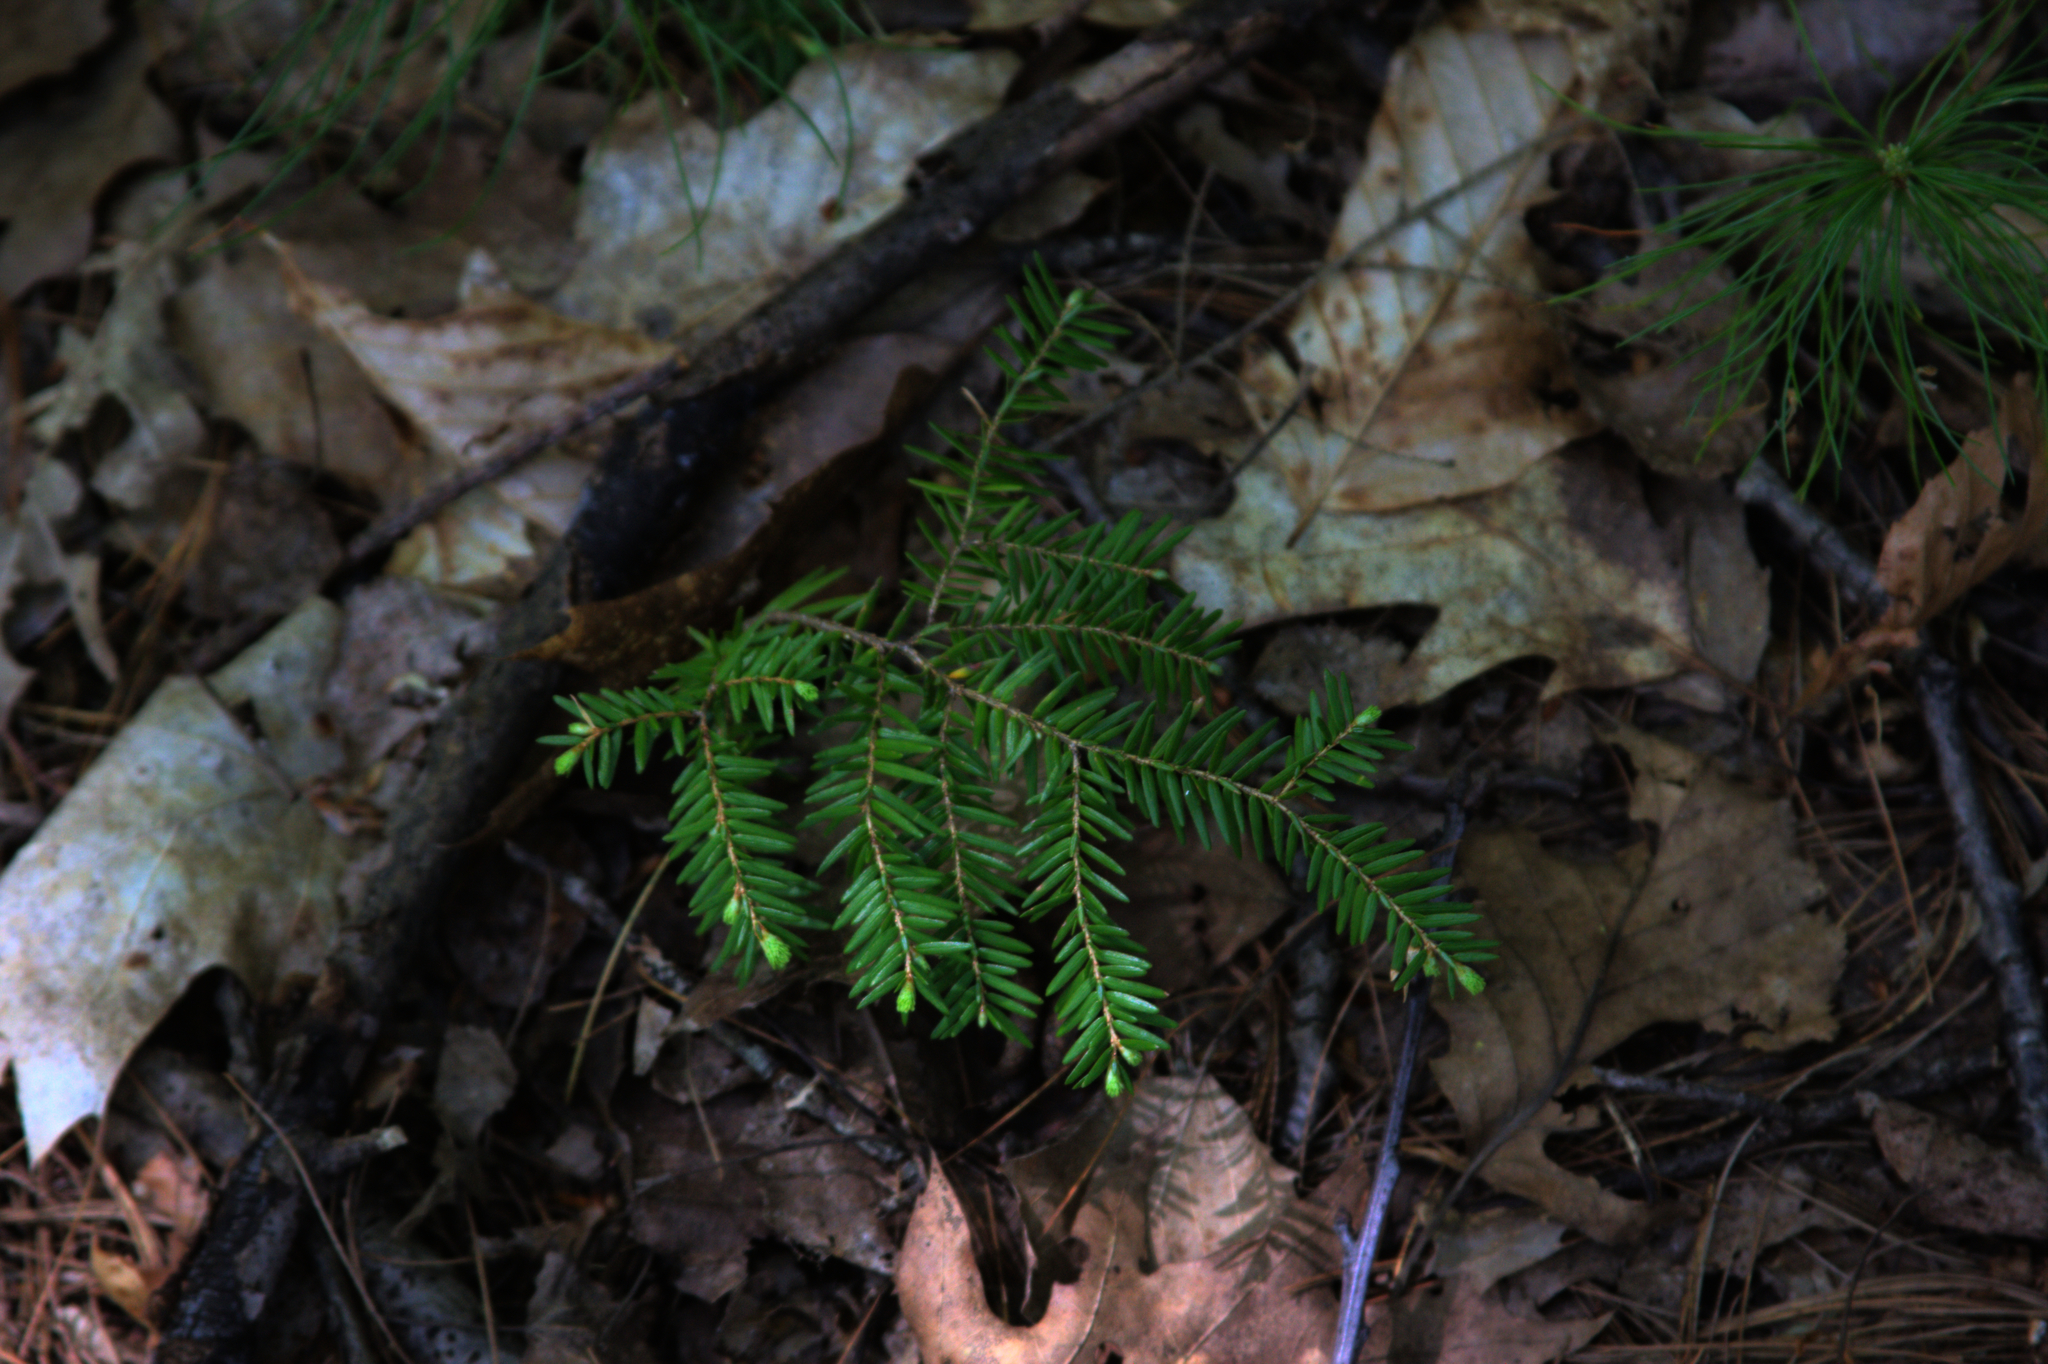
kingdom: Plantae
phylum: Tracheophyta
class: Pinopsida
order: Pinales
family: Pinaceae
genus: Tsuga
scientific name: Tsuga canadensis
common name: Eastern hemlock
